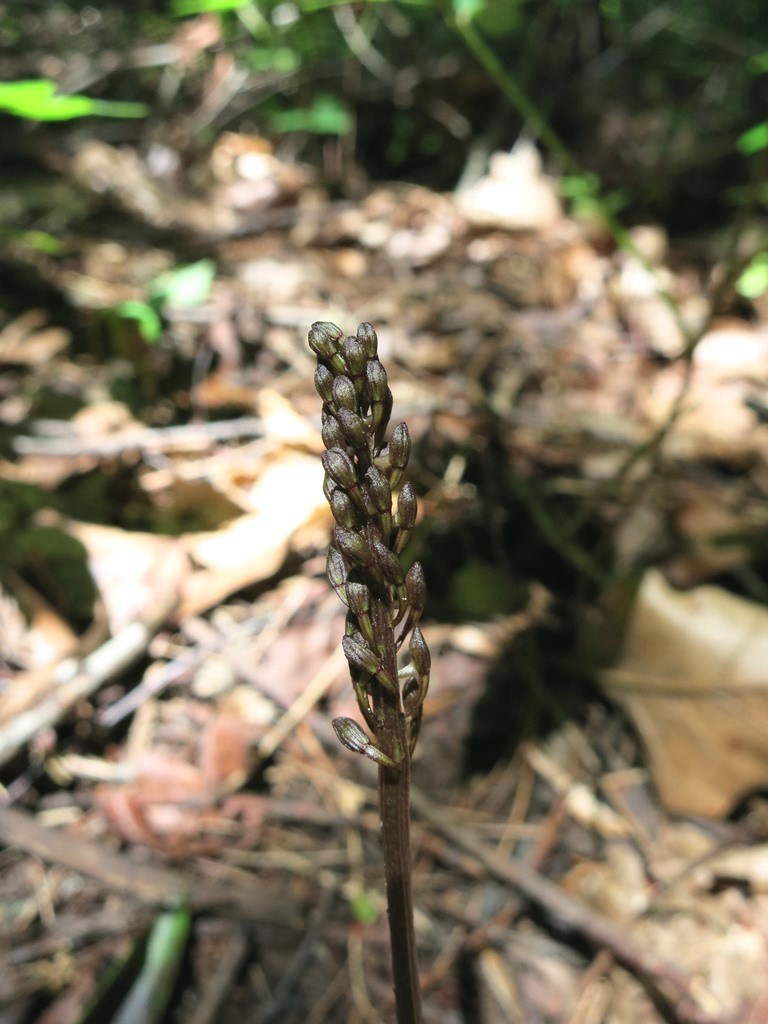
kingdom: Plantae
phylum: Tracheophyta
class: Liliopsida
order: Asparagales
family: Orchidaceae
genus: Tipularia
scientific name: Tipularia discolor
